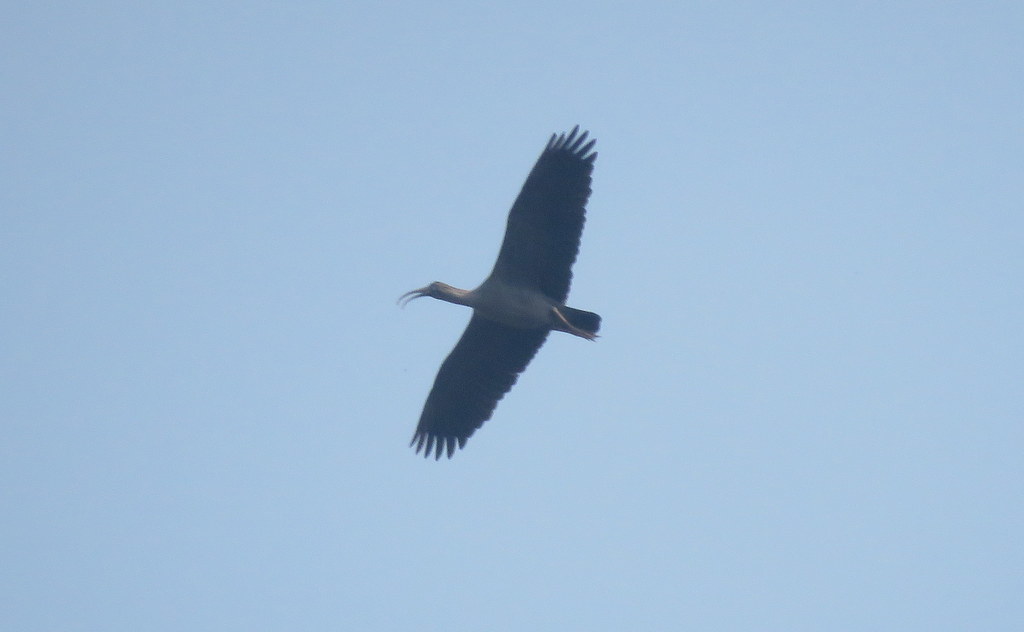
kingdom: Animalia
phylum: Chordata
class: Aves
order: Pelecaniformes
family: Threskiornithidae
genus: Theristicus
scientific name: Theristicus caerulescens
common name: Plumbeous ibis
